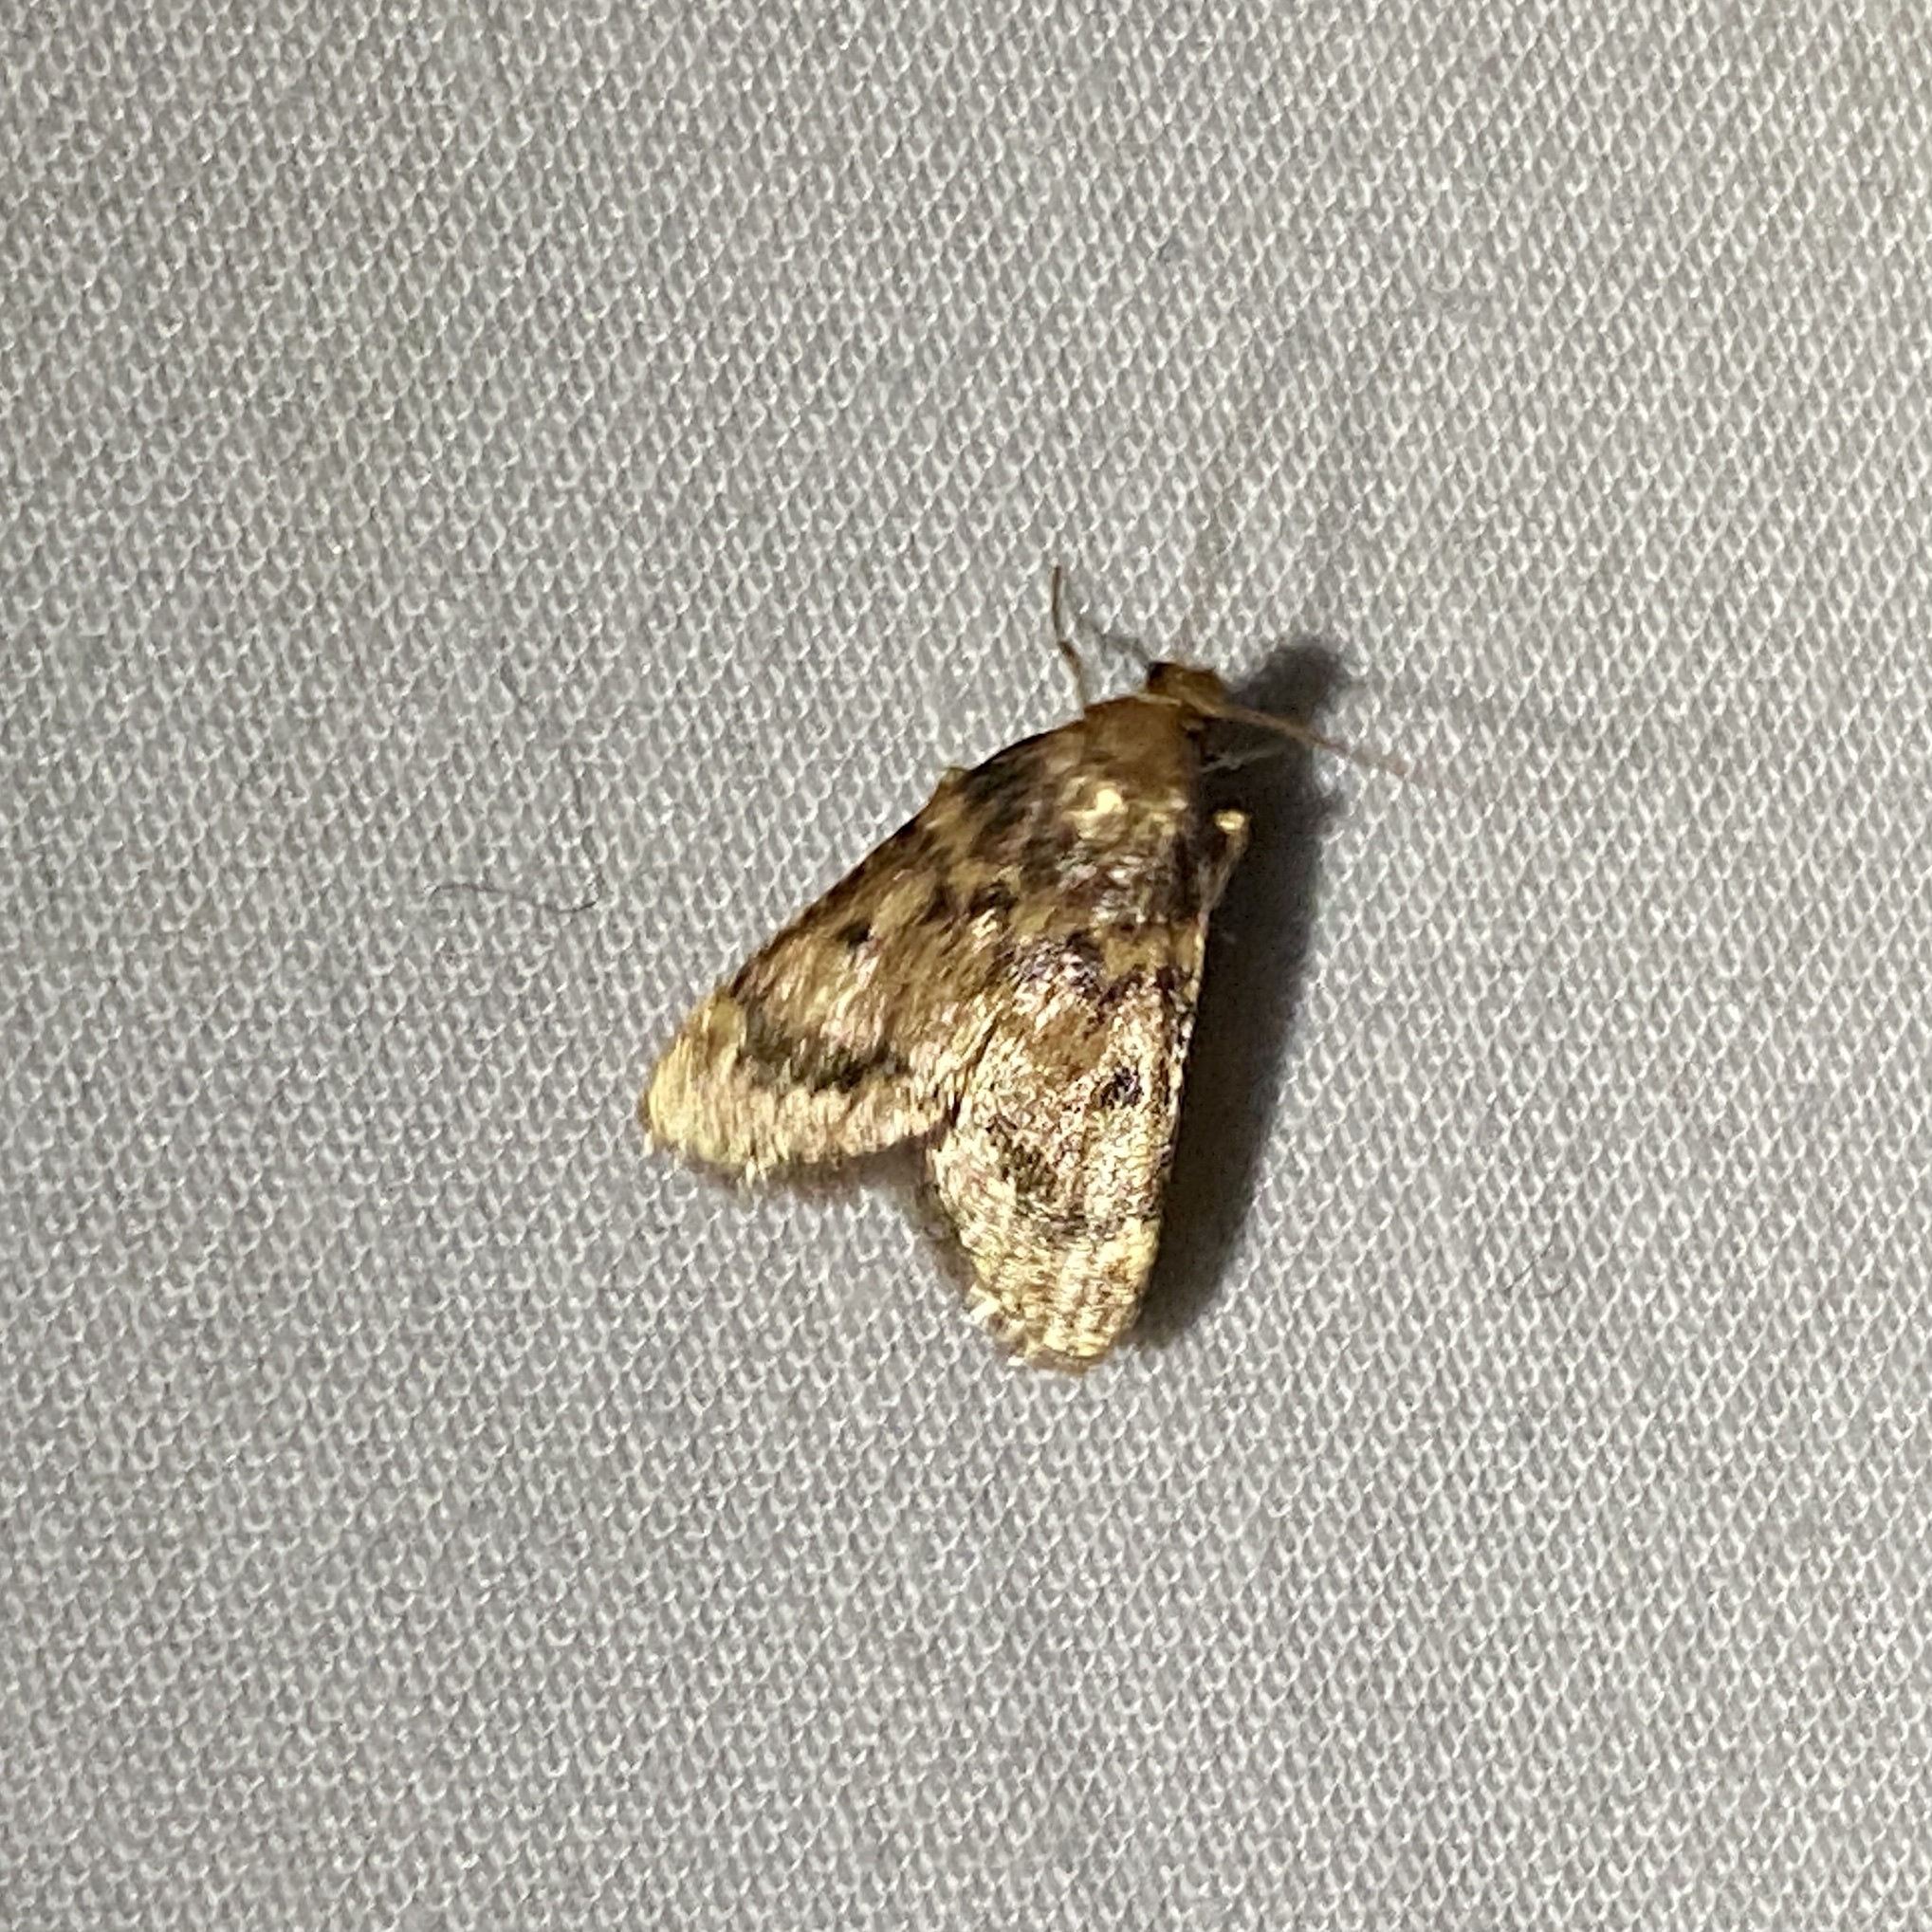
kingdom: Animalia
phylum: Arthropoda
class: Insecta
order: Lepidoptera
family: Pyralidae
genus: Aglossa
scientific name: Aglossa disciferalis
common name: Pink-masked pyralid moth
